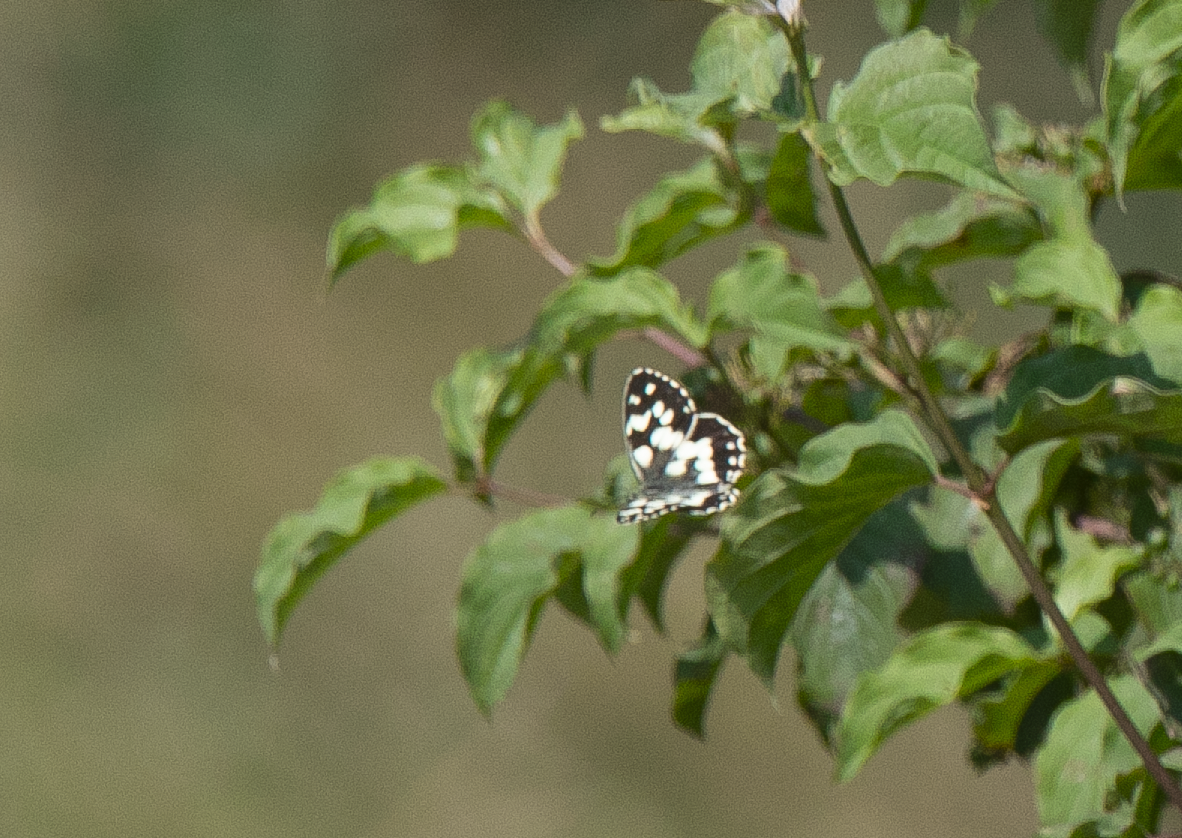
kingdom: Animalia
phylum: Arthropoda
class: Insecta
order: Lepidoptera
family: Nymphalidae
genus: Melanargia
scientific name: Melanargia galathea
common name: Marbled white
